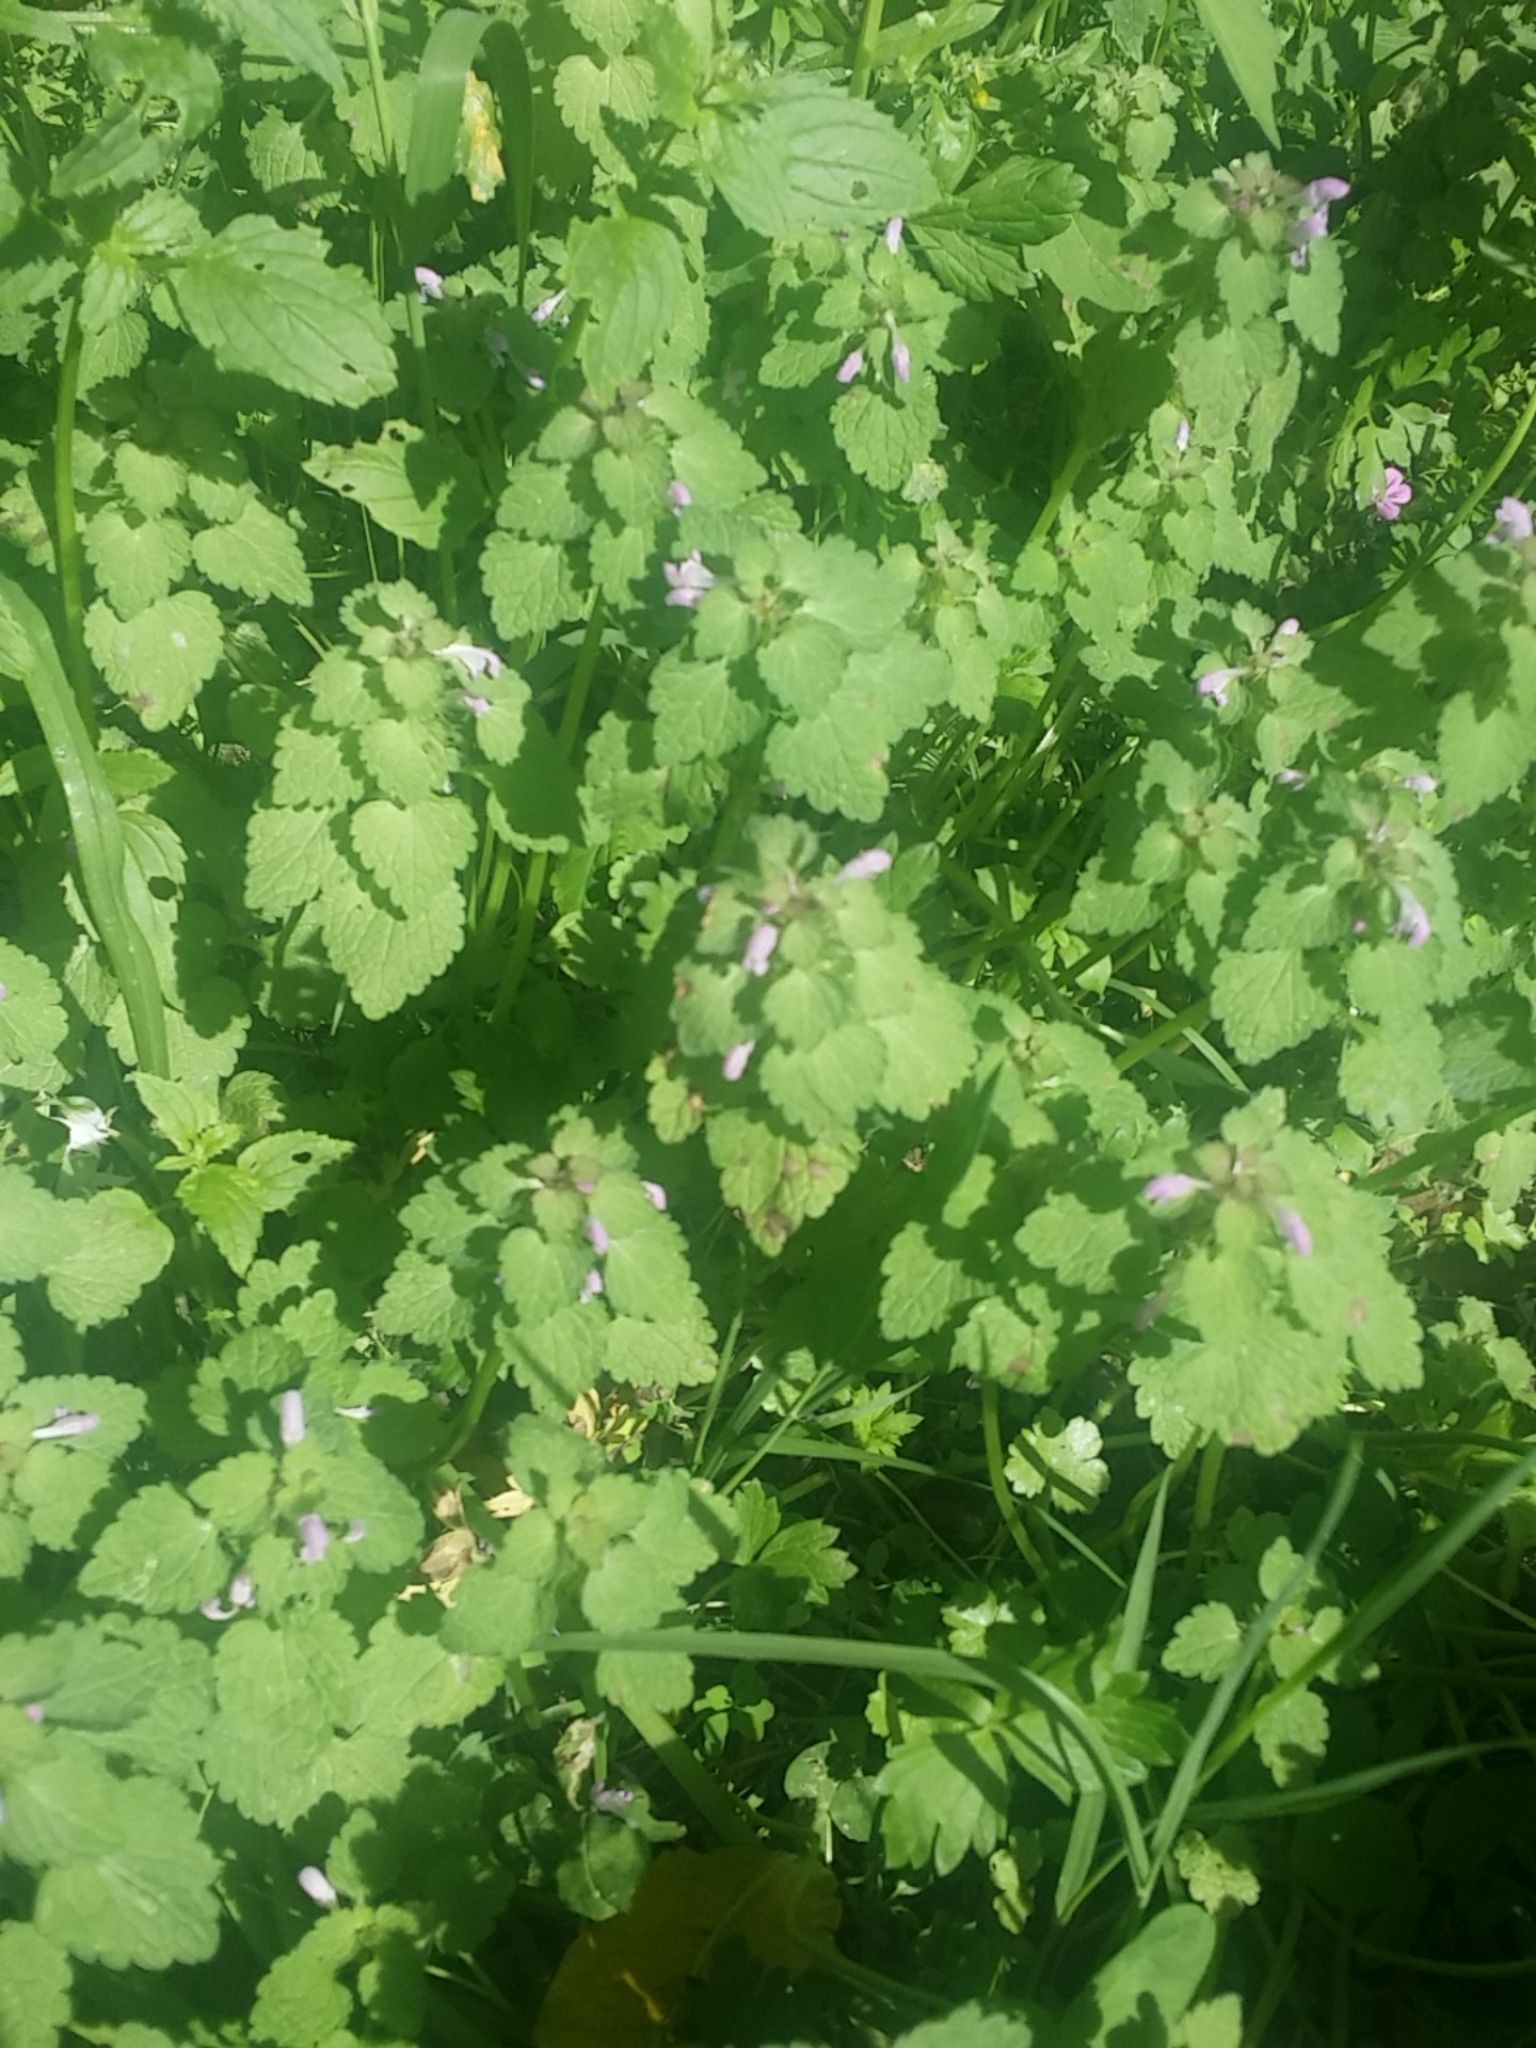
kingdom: Plantae
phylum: Tracheophyta
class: Magnoliopsida
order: Lamiales
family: Lamiaceae
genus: Lamium
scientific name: Lamium purpureum
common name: Red dead-nettle
